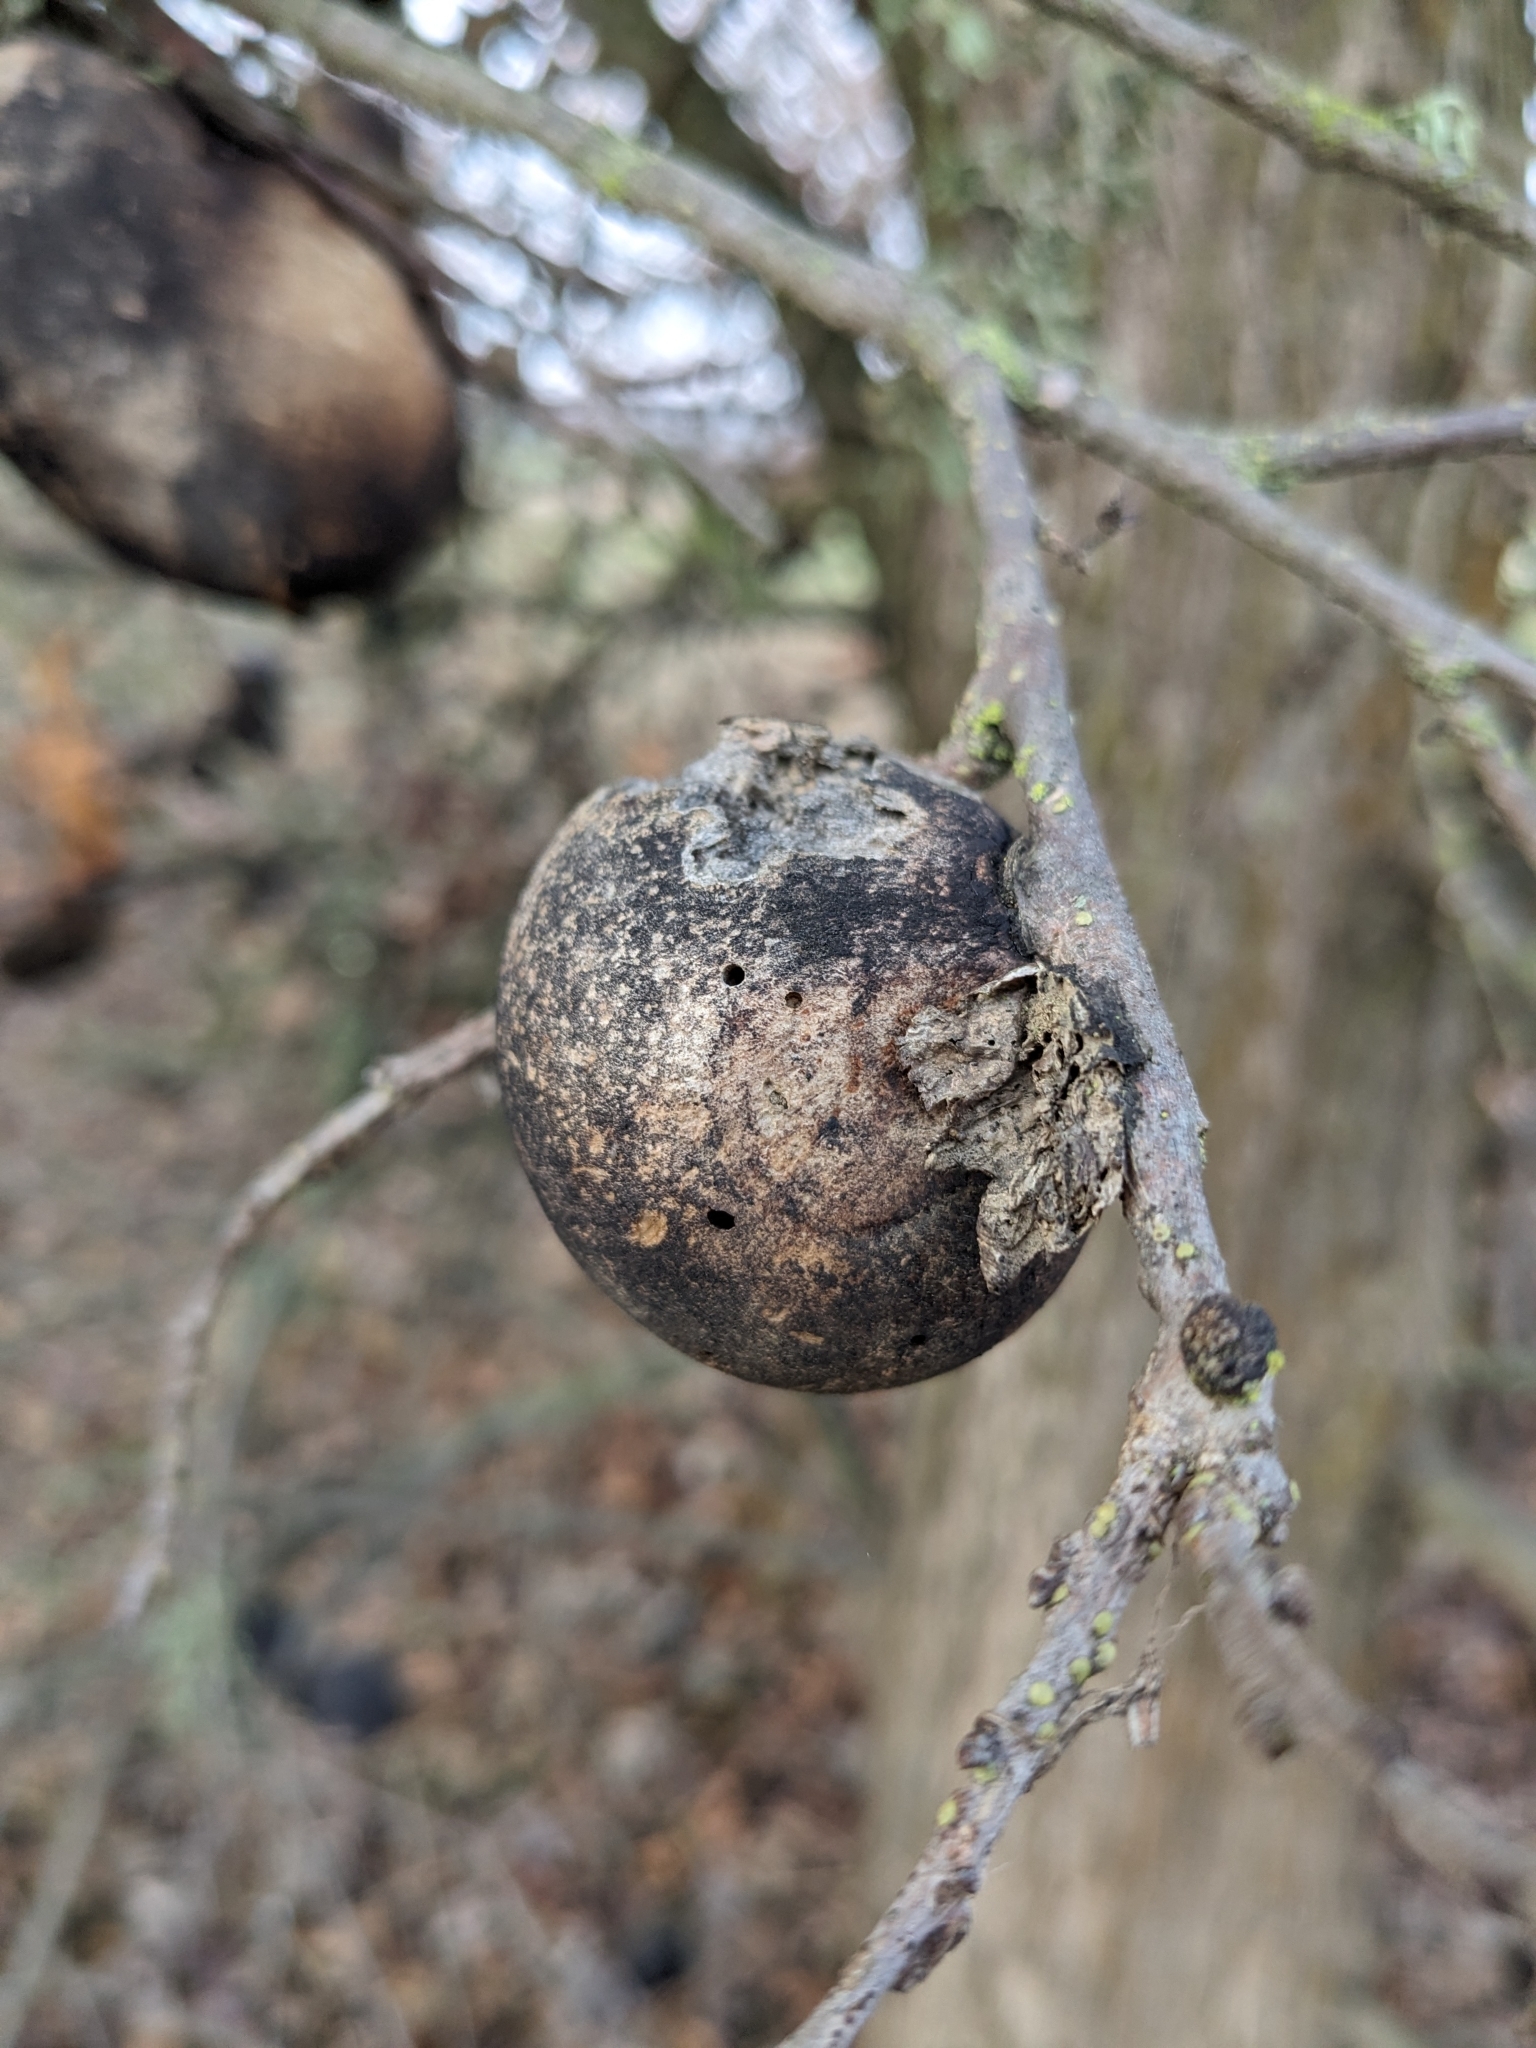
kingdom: Animalia
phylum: Arthropoda
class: Insecta
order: Hymenoptera
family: Cynipidae
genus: Andricus
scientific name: Andricus quercuscalifornicus
